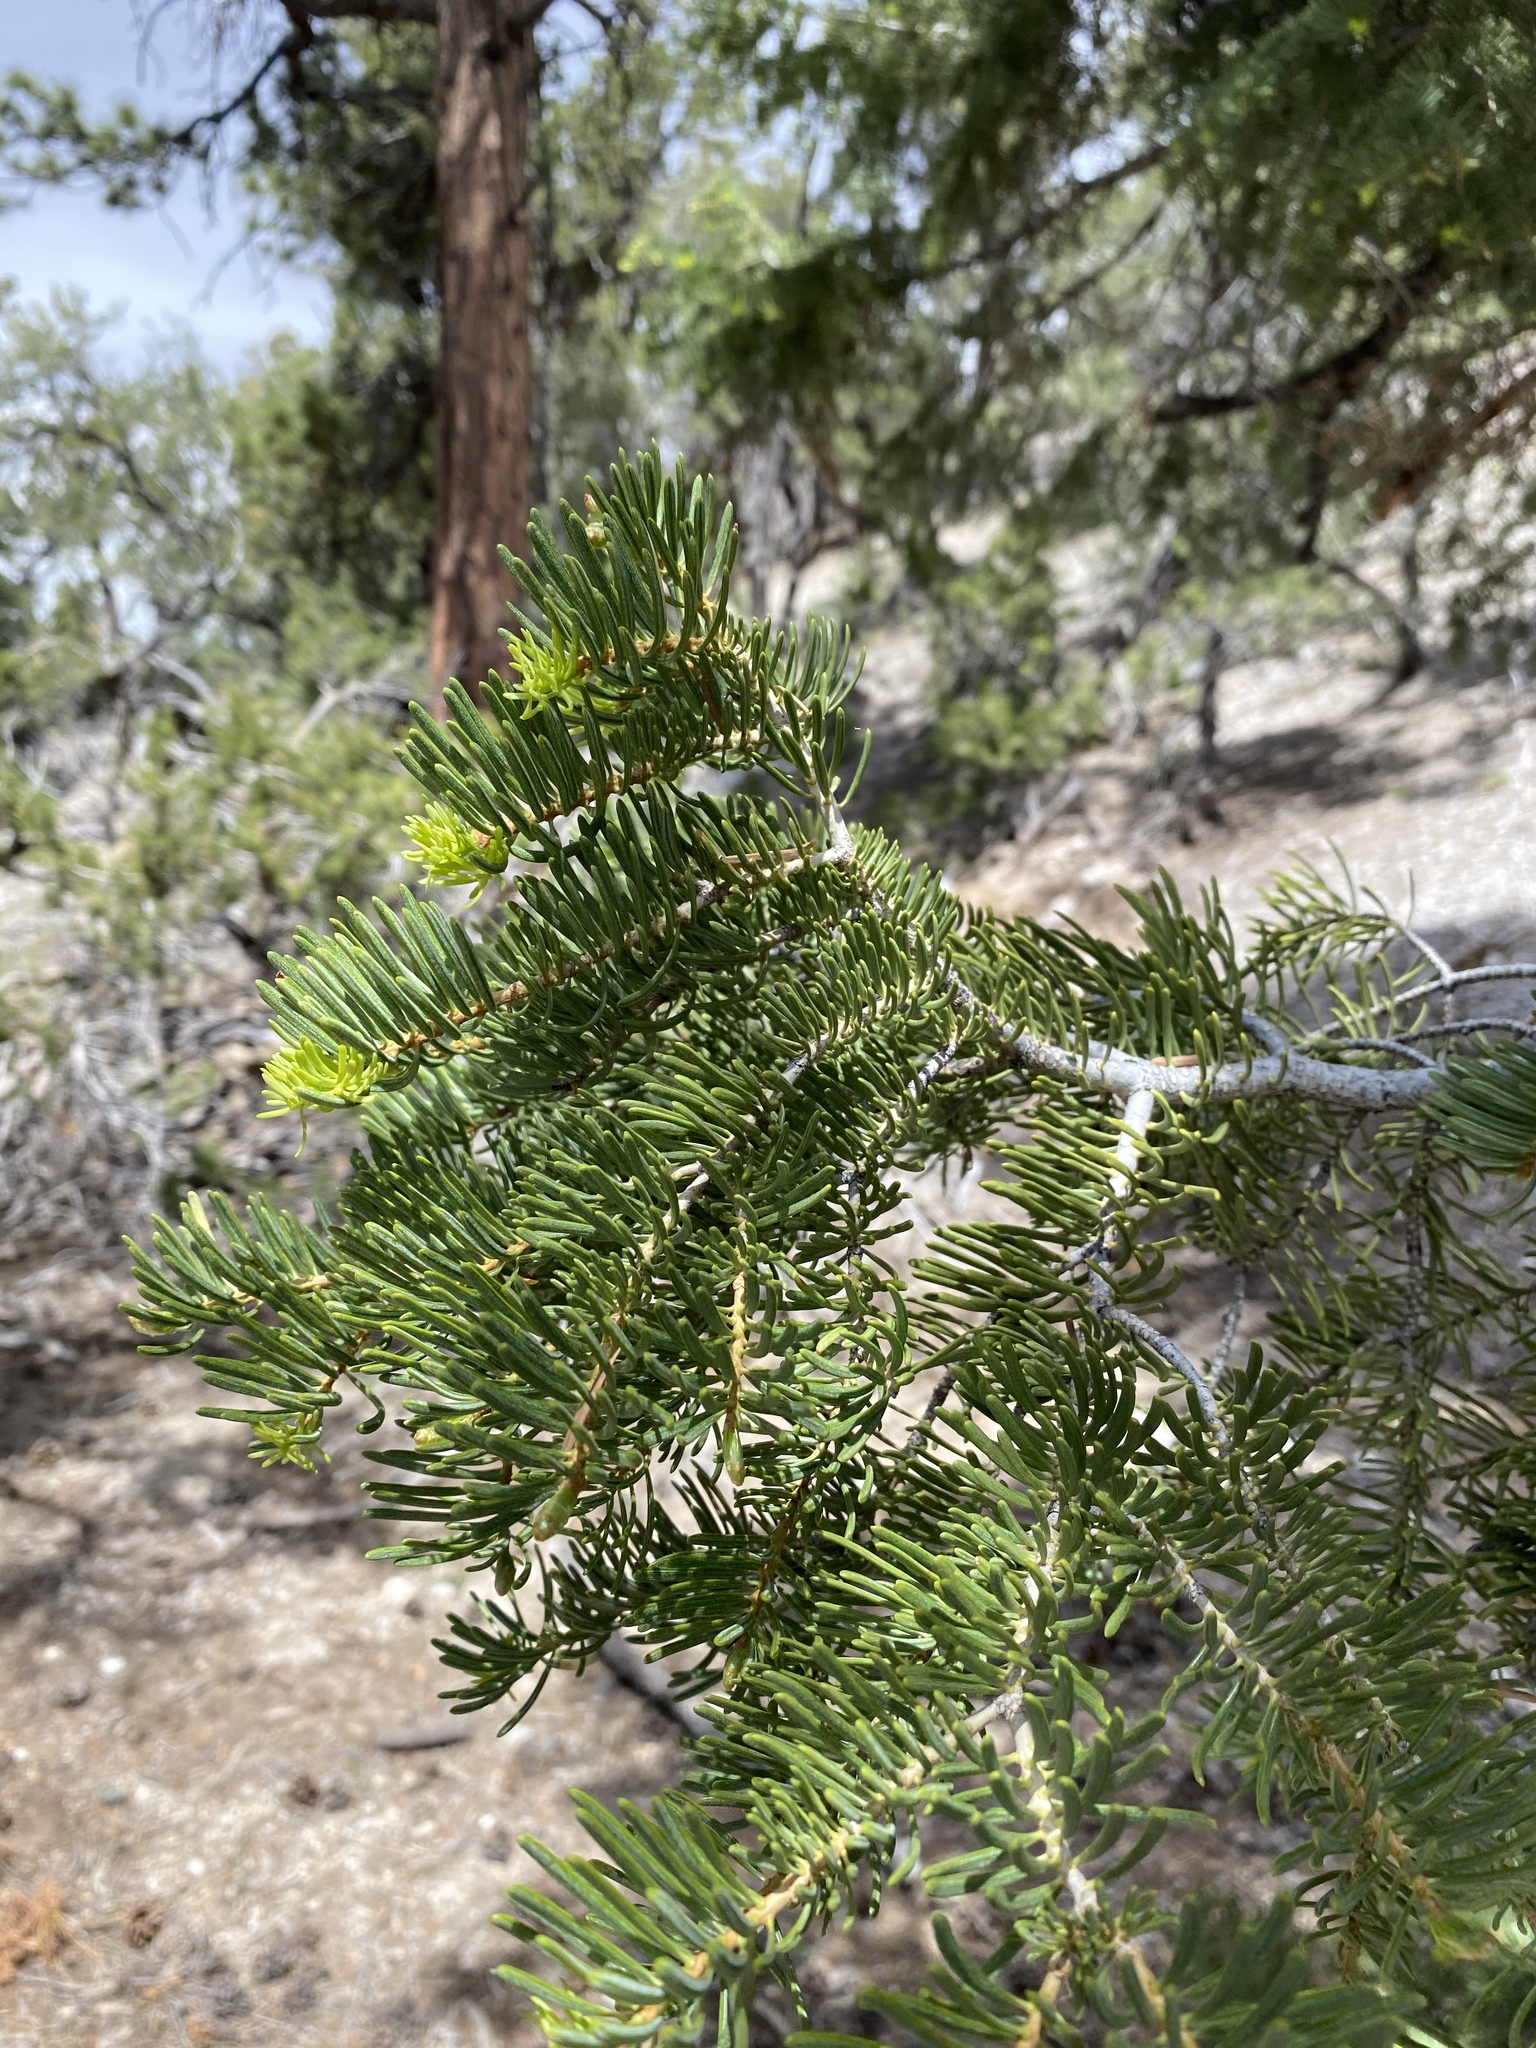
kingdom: Plantae
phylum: Tracheophyta
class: Pinopsida
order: Pinales
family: Pinaceae
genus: Abies
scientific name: Abies concolor
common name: Colorado fir
